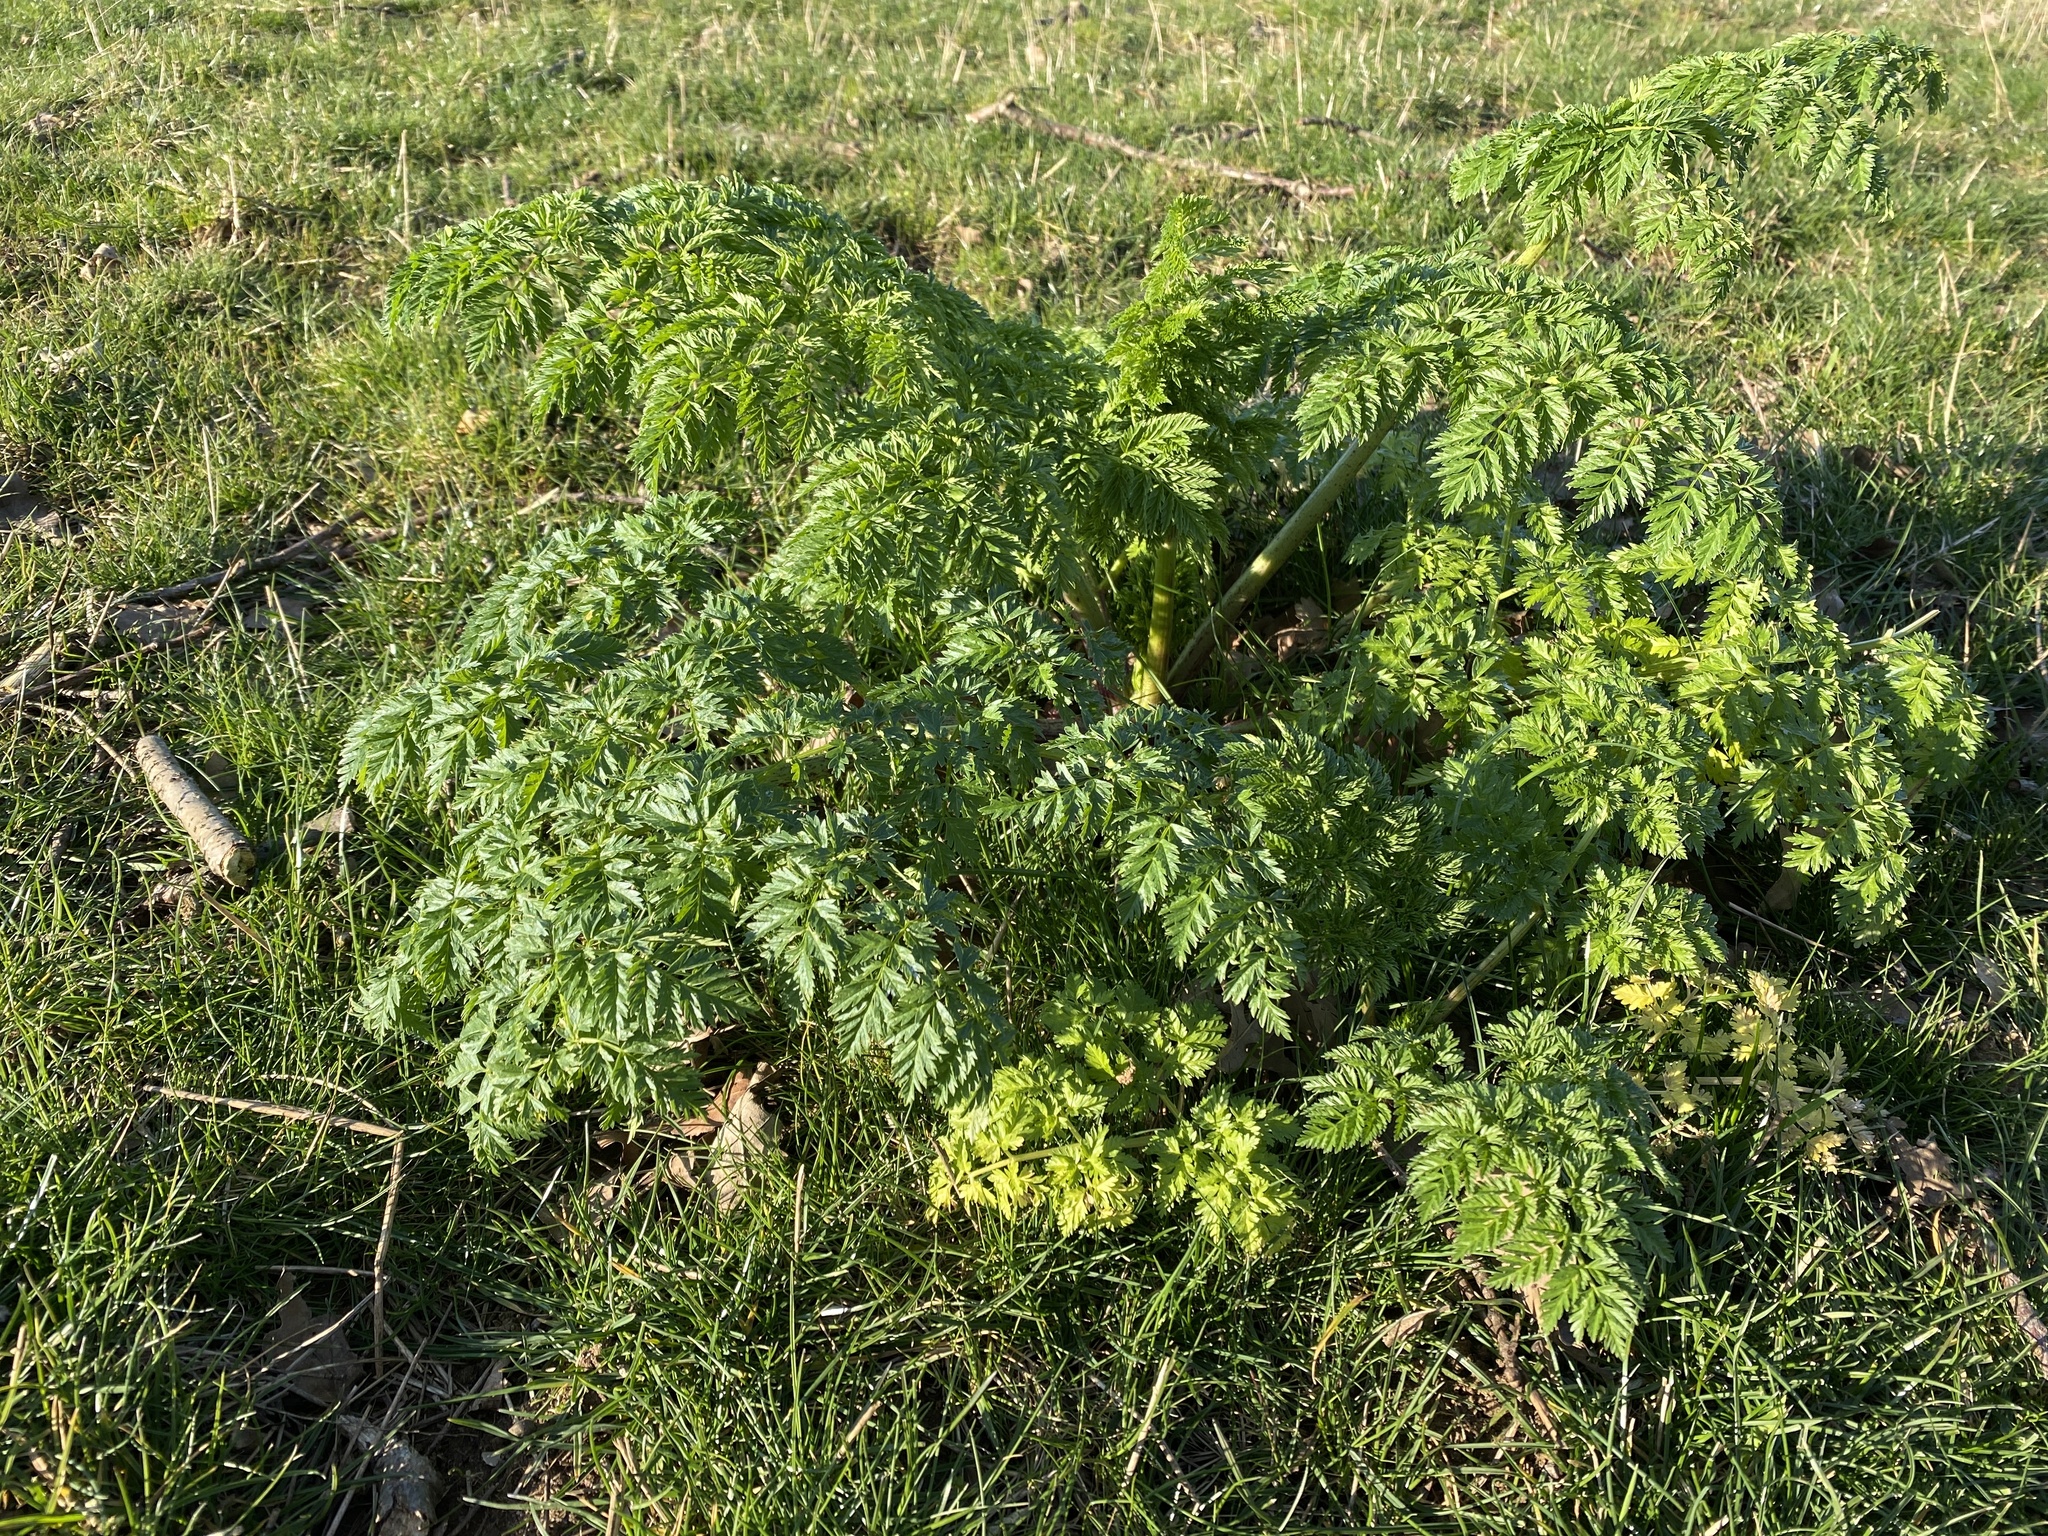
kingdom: Plantae
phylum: Tracheophyta
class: Magnoliopsida
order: Apiales
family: Apiaceae
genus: Conium
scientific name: Conium maculatum
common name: Hemlock
